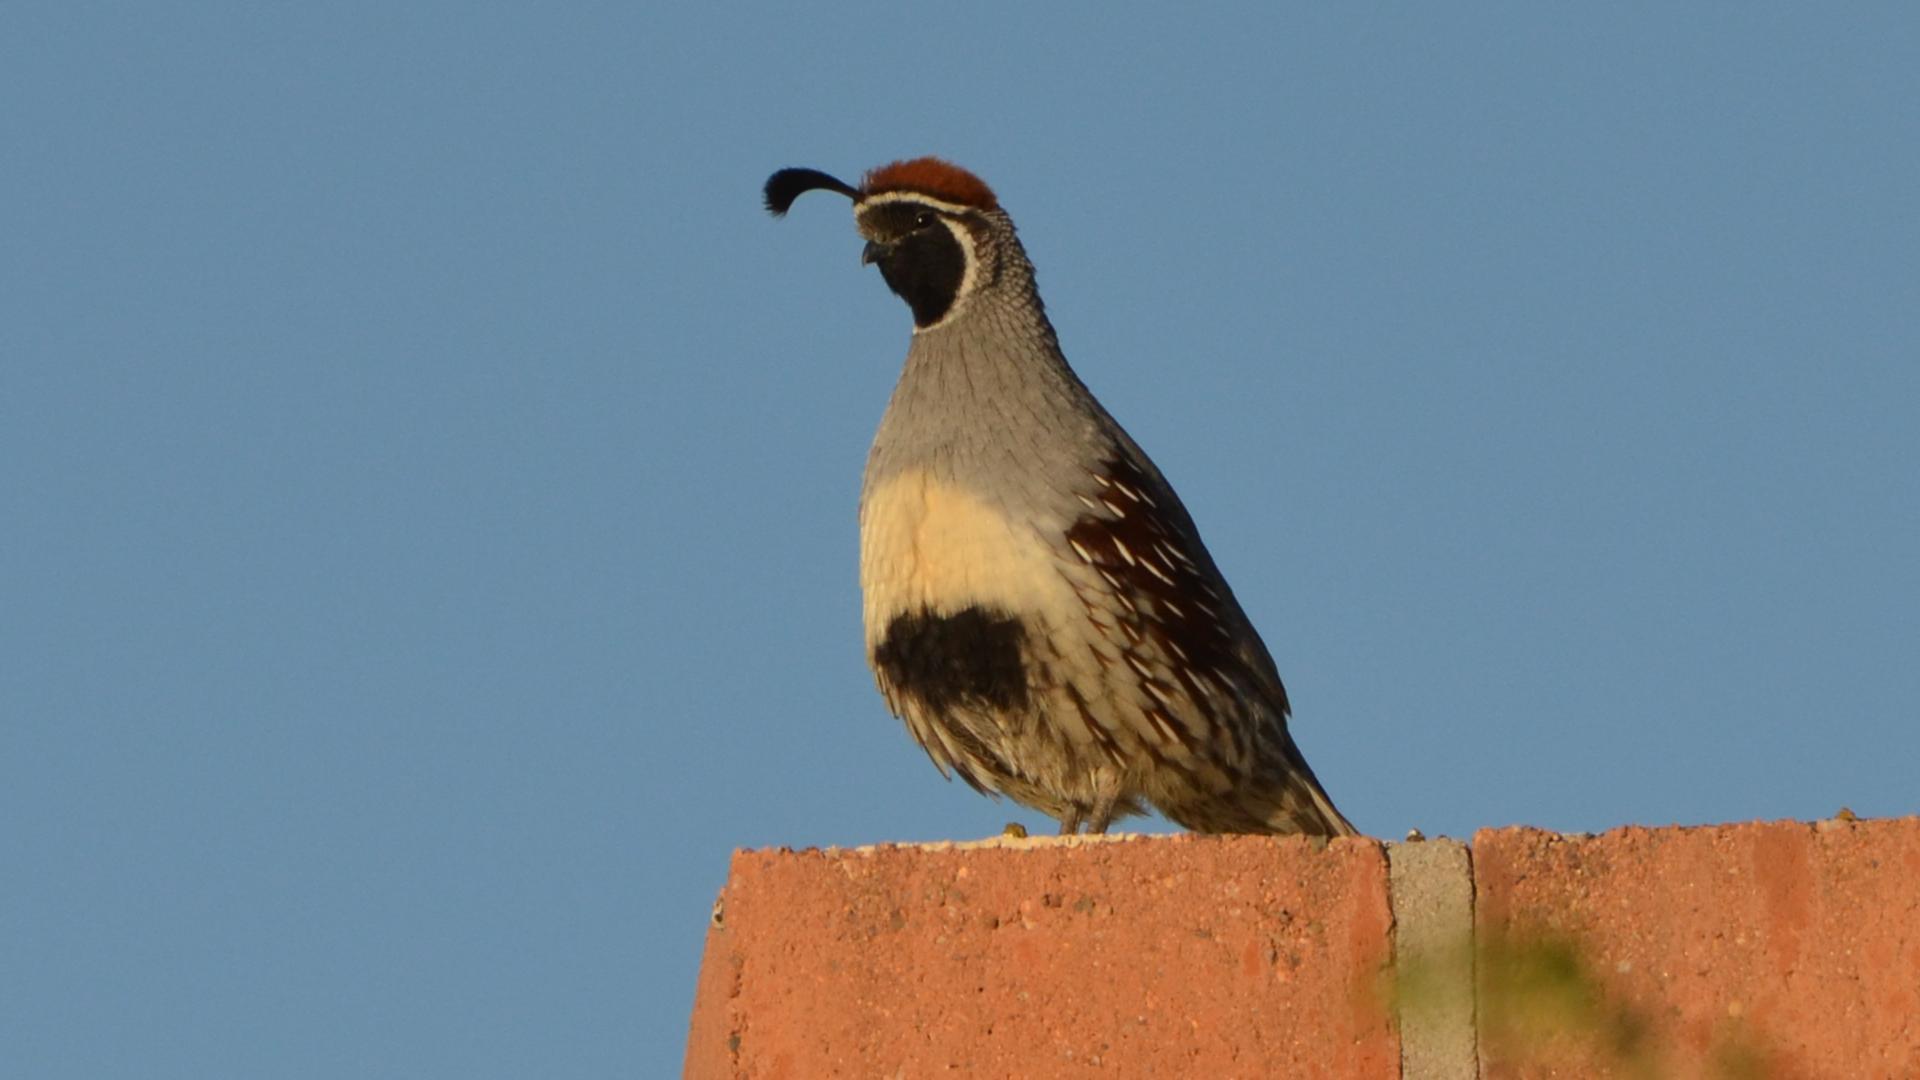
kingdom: Animalia
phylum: Chordata
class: Aves
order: Galliformes
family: Odontophoridae
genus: Callipepla
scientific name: Callipepla gambelii
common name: Gambel's quail
